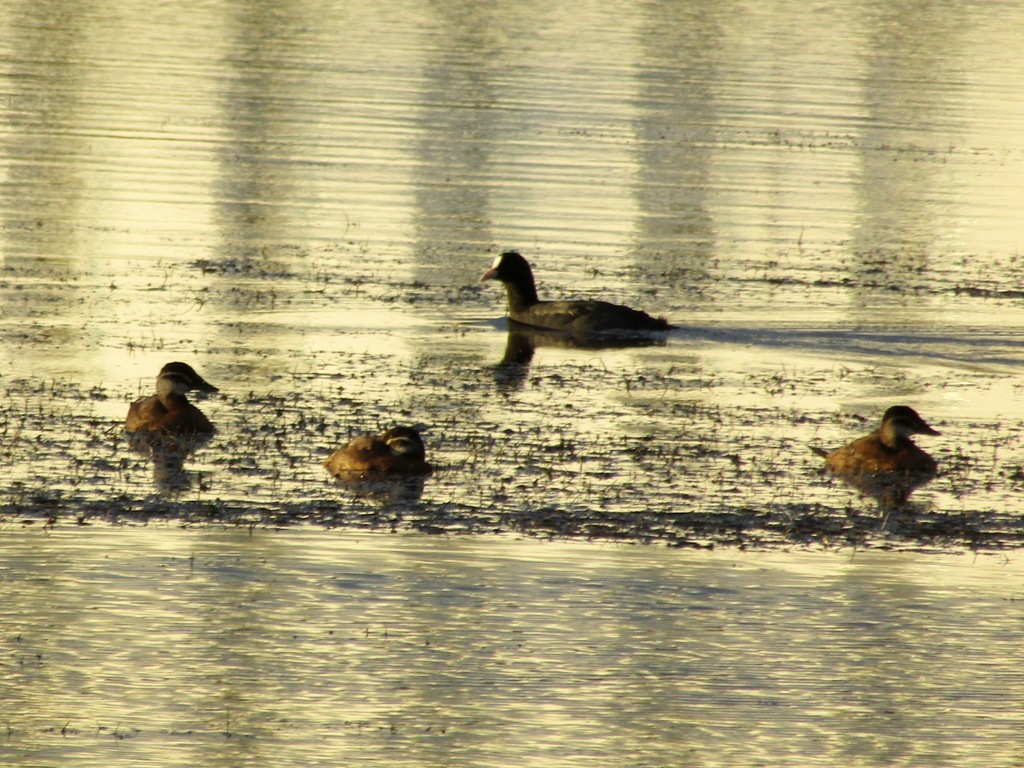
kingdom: Animalia
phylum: Chordata
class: Aves
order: Anseriformes
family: Anatidae
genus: Oxyura
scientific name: Oxyura leucocephala
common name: White-headed duck
